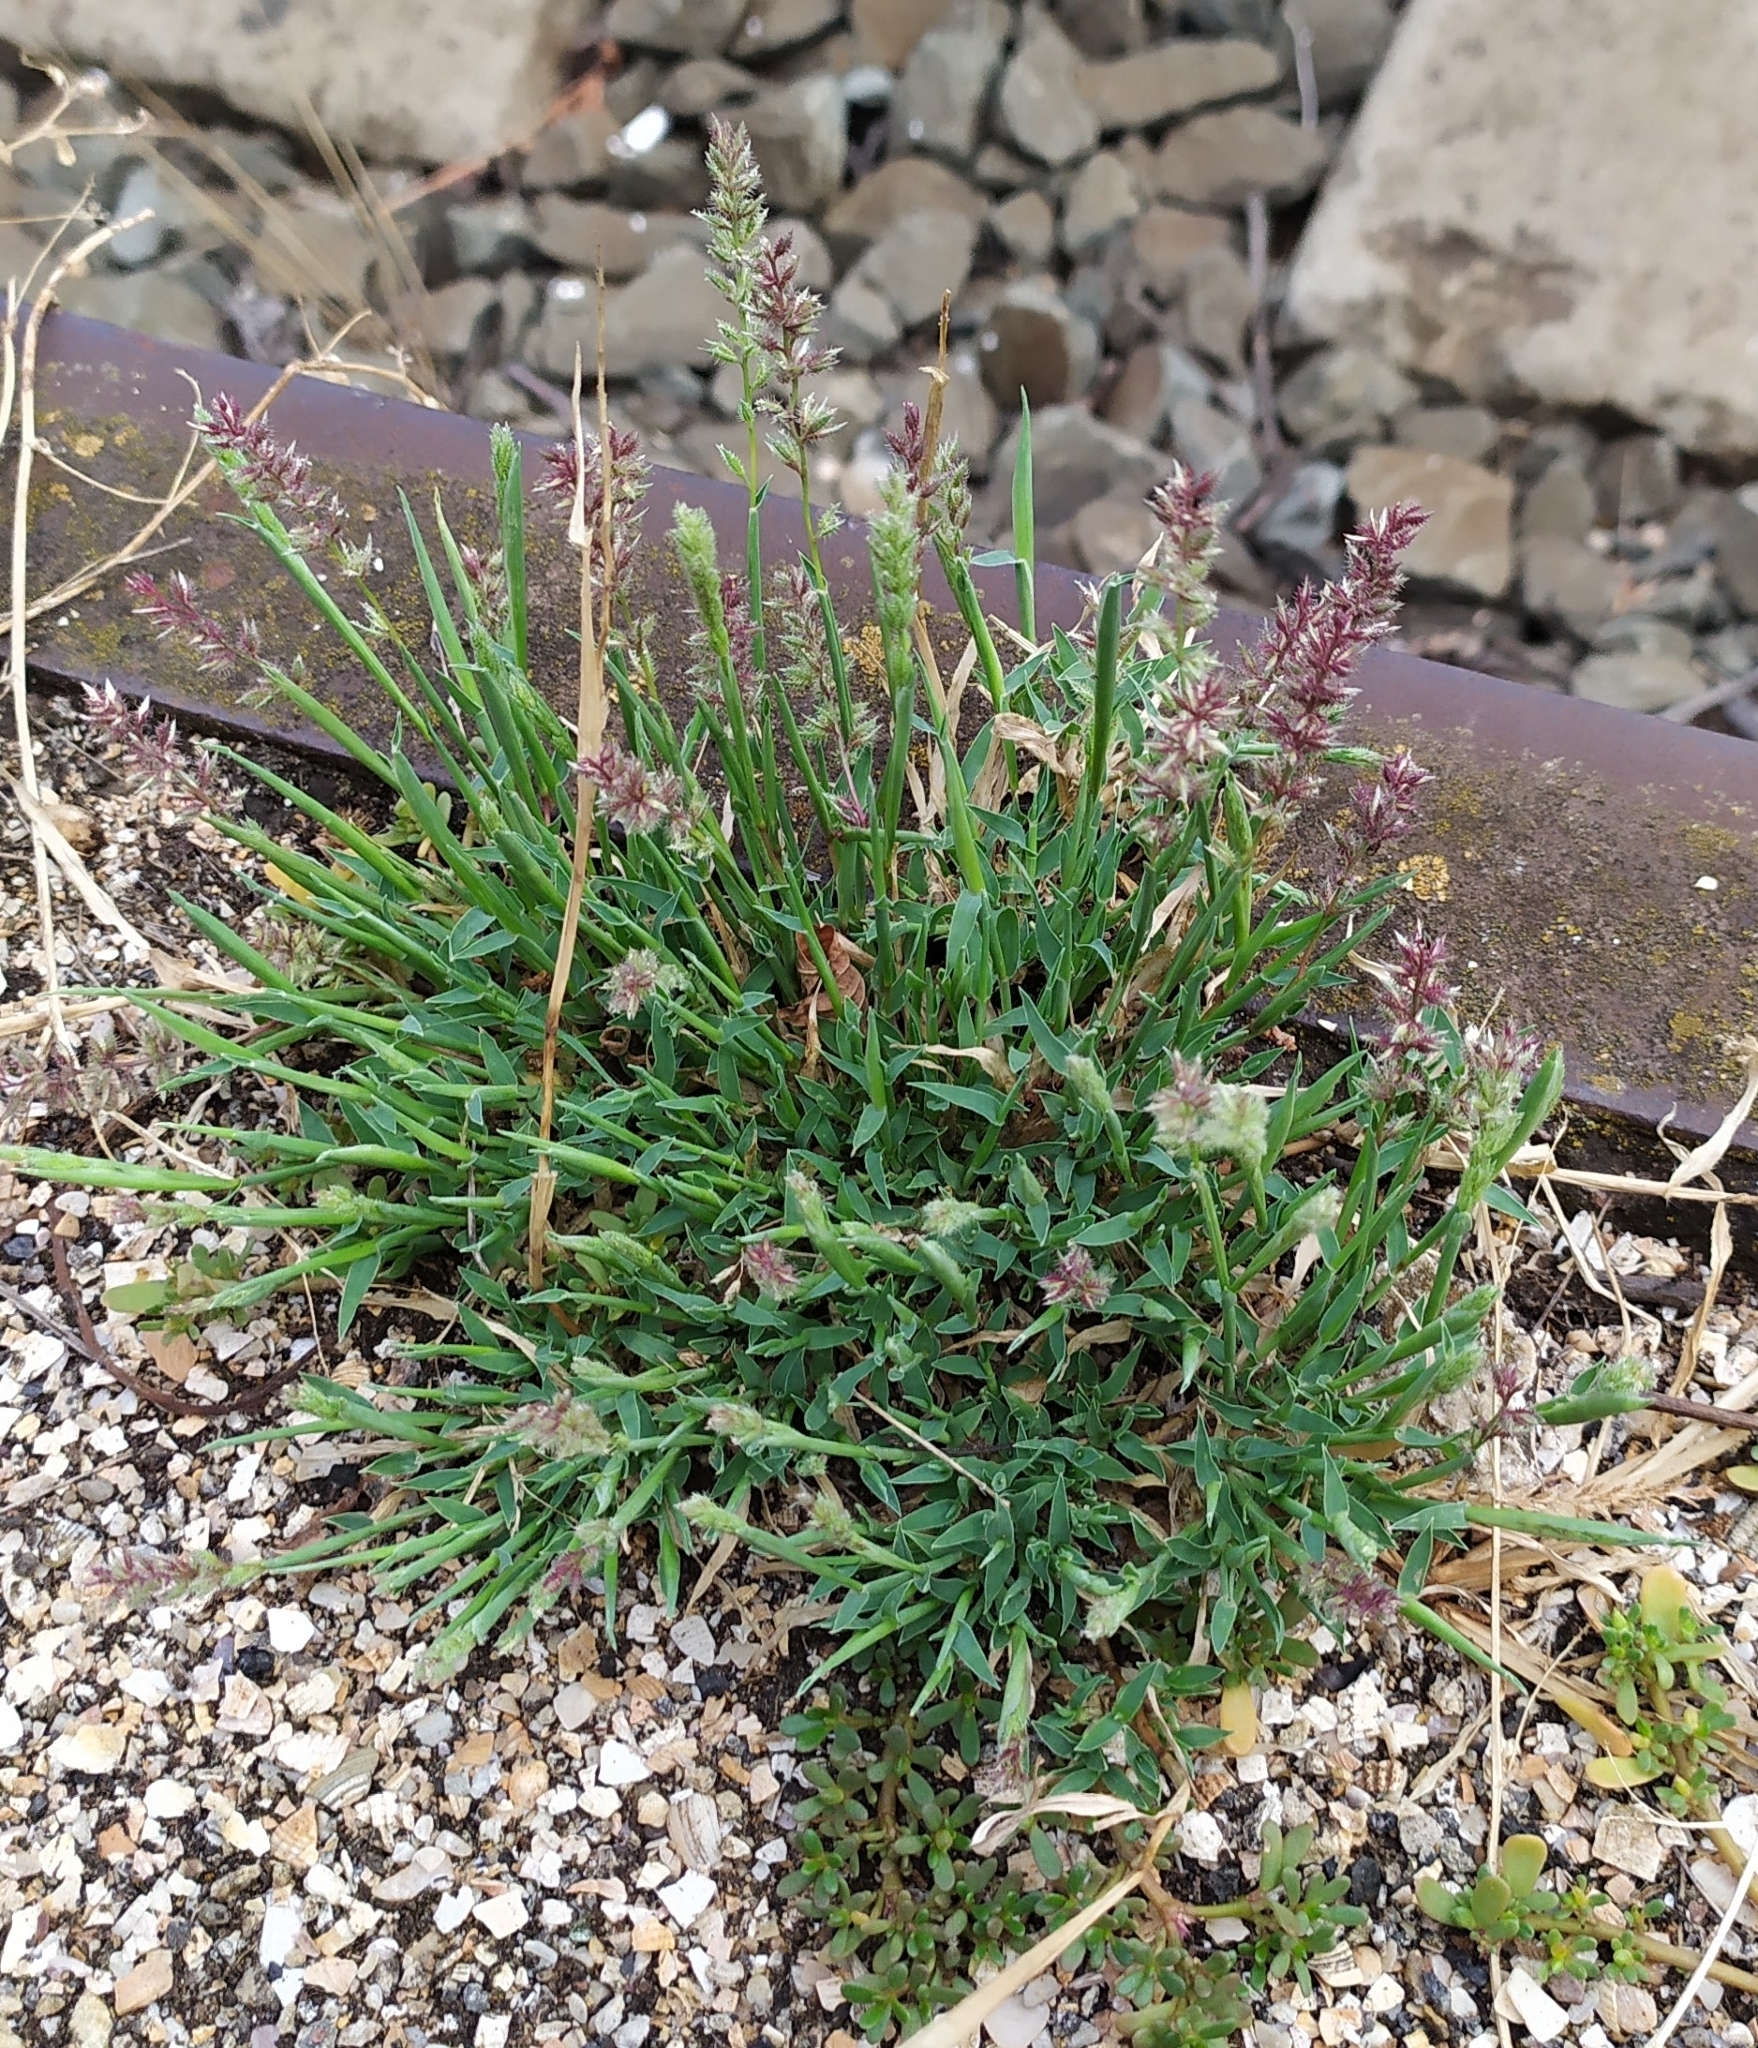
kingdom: Plantae
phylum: Tracheophyta
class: Liliopsida
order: Poales
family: Poaceae
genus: Tragus
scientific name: Tragus racemosus
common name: European bur-grass
